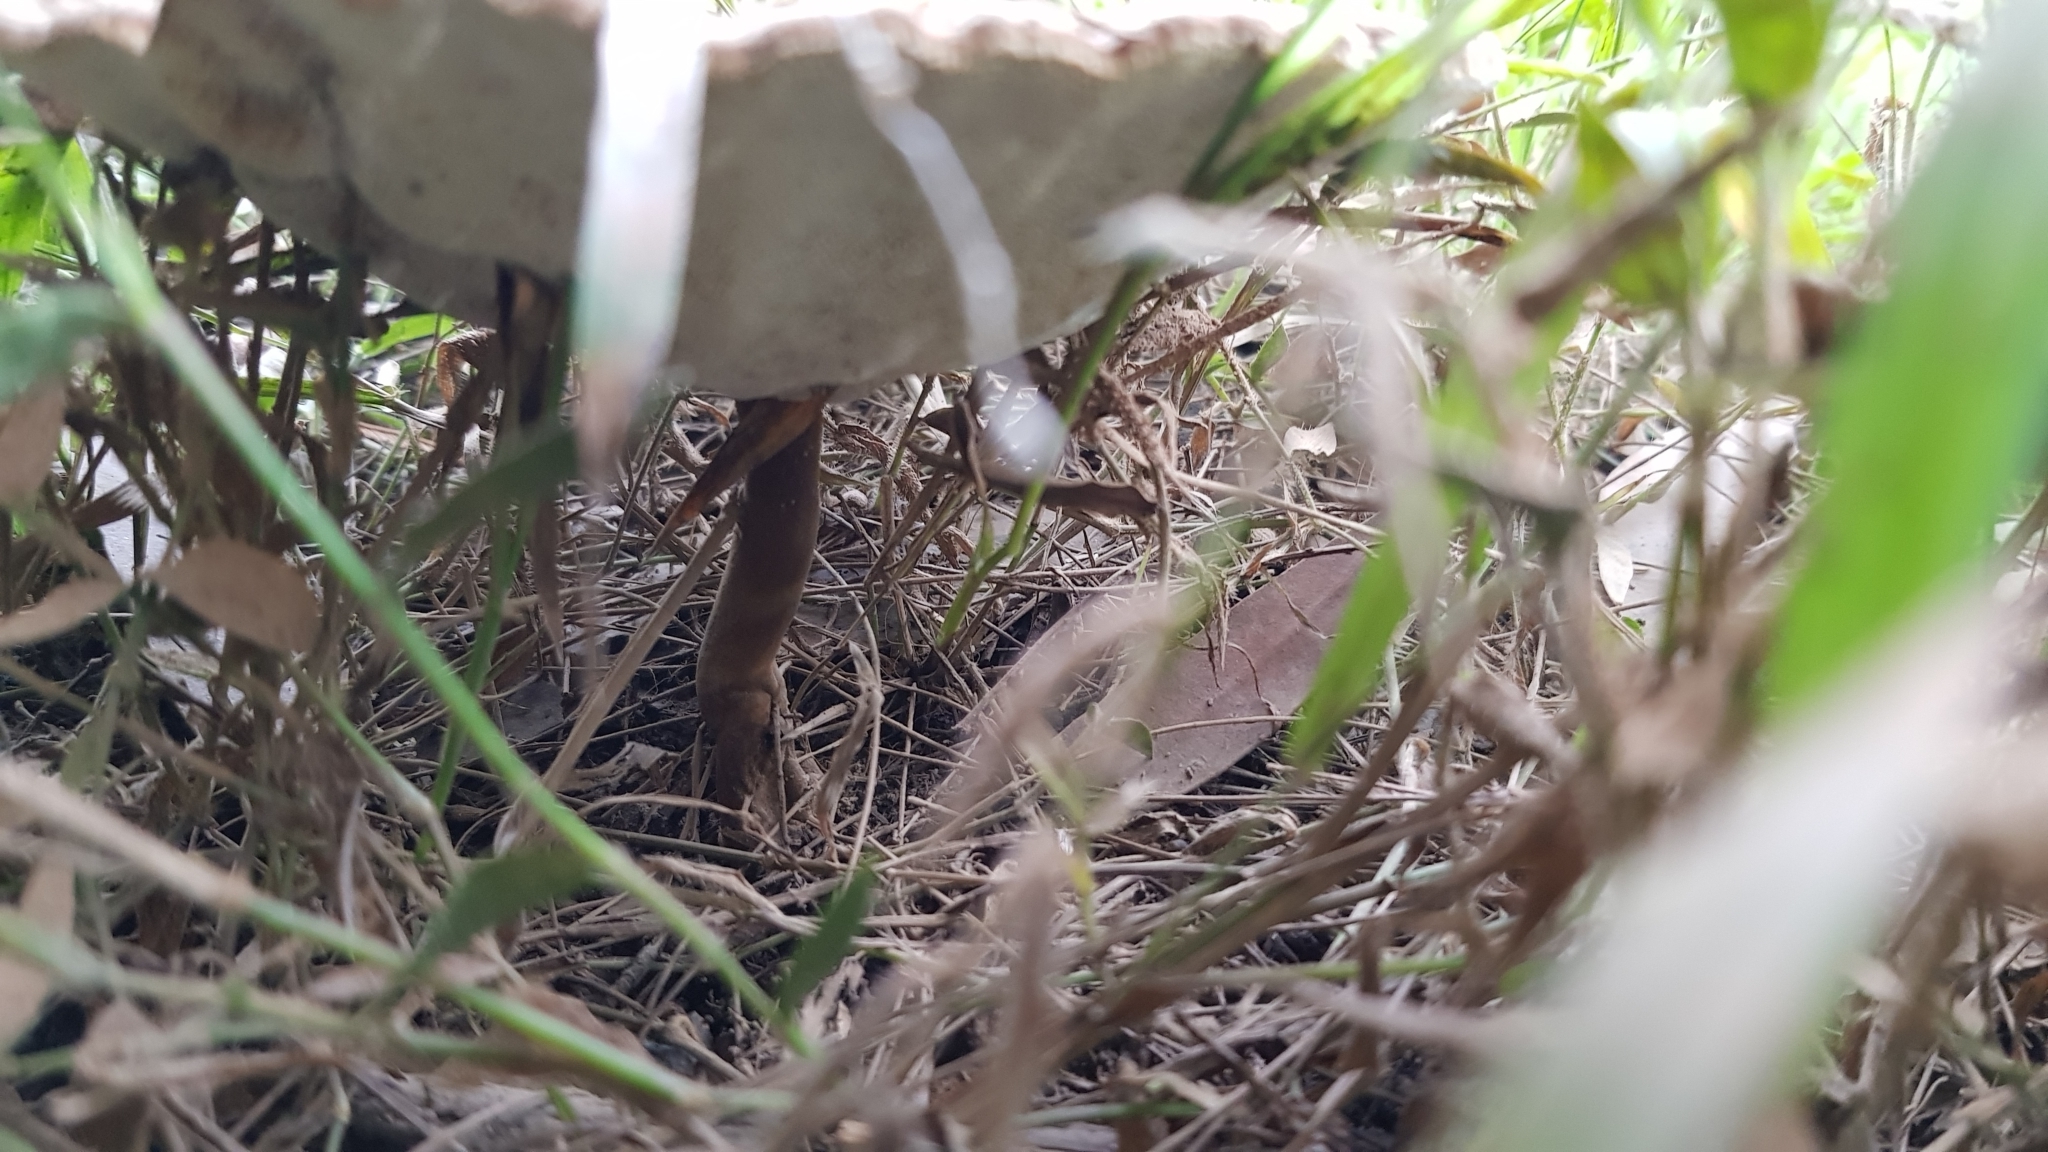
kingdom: Fungi
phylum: Basidiomycota
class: Agaricomycetes
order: Polyporales
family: Ganodermataceae
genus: Sanguinoderma
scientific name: Sanguinoderma rude
